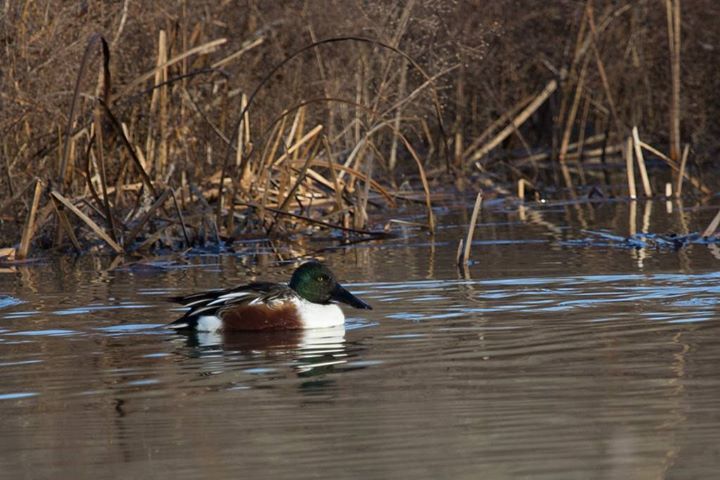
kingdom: Animalia
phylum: Chordata
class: Aves
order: Anseriformes
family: Anatidae
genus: Spatula
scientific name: Spatula clypeata
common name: Northern shoveler
